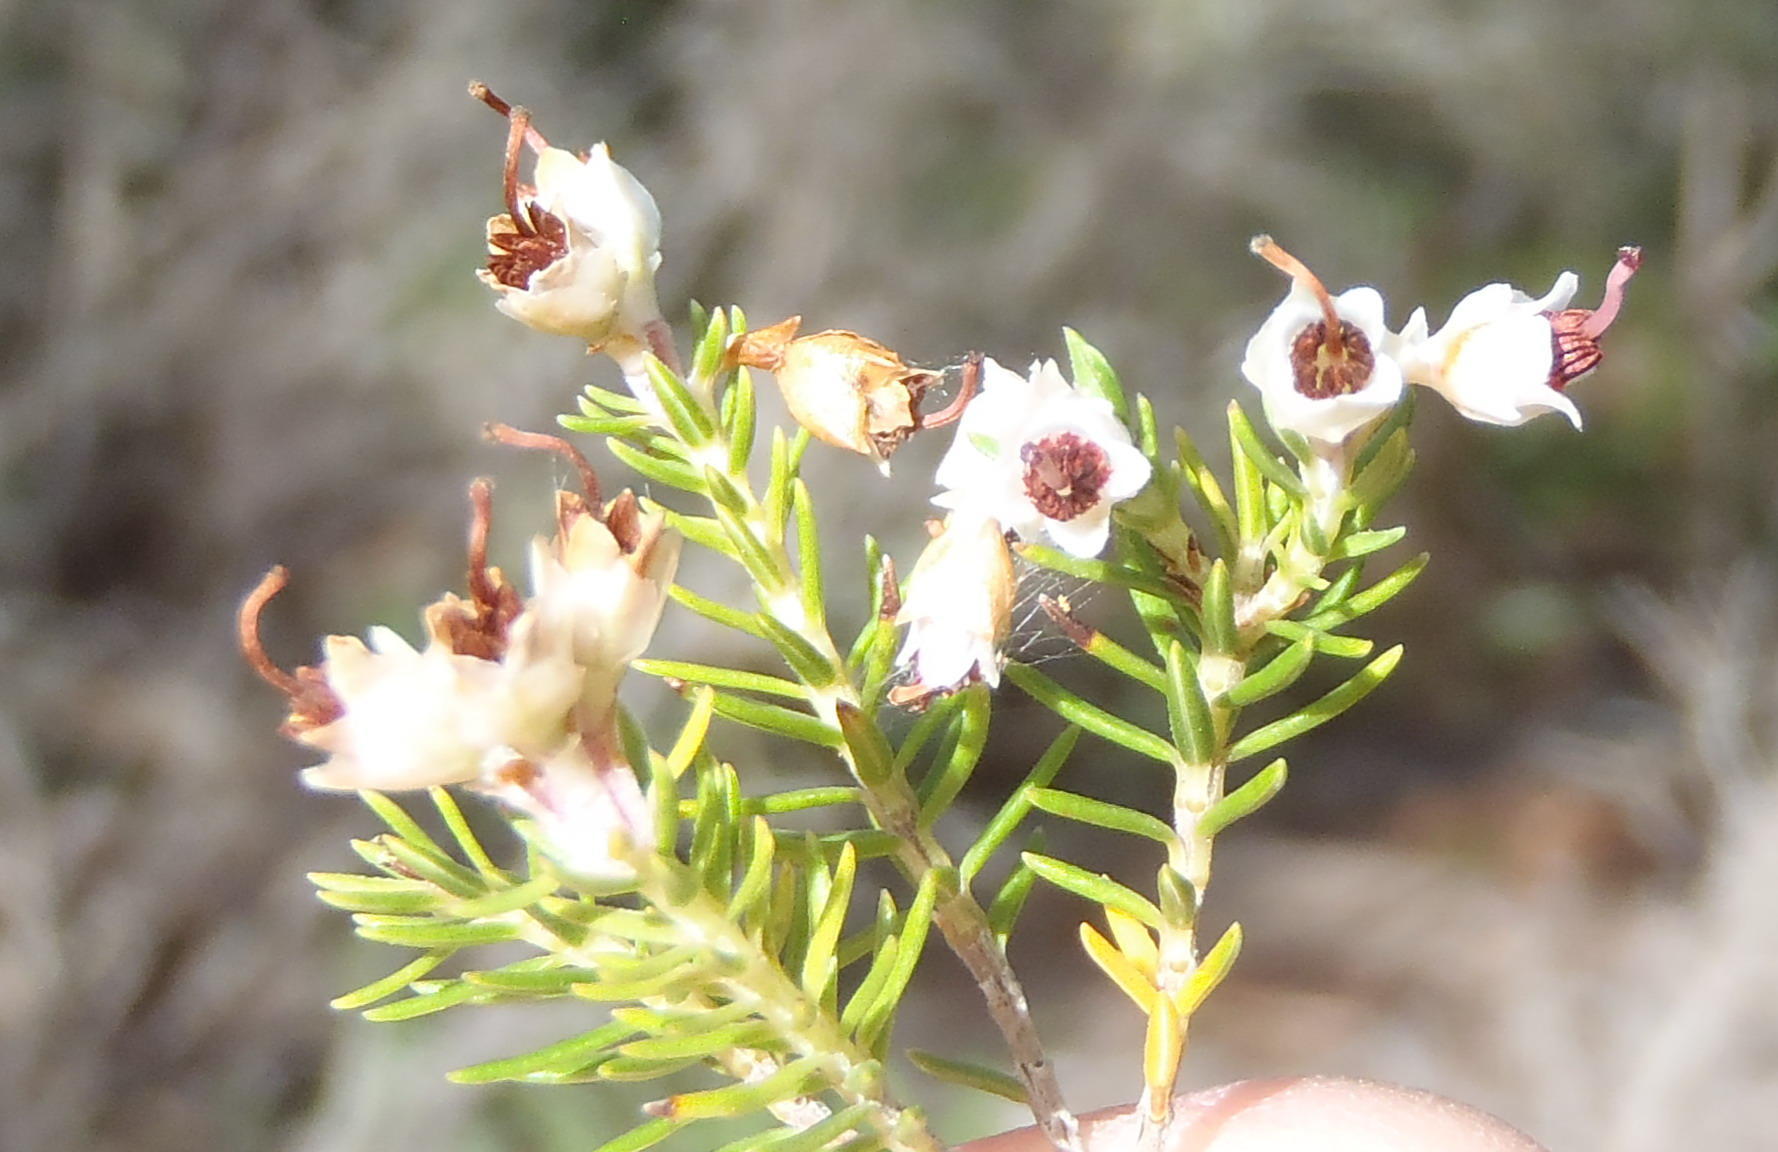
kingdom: Plantae
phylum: Tracheophyta
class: Magnoliopsida
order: Ericales
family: Ericaceae
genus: Erica
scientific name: Erica brownleeae
